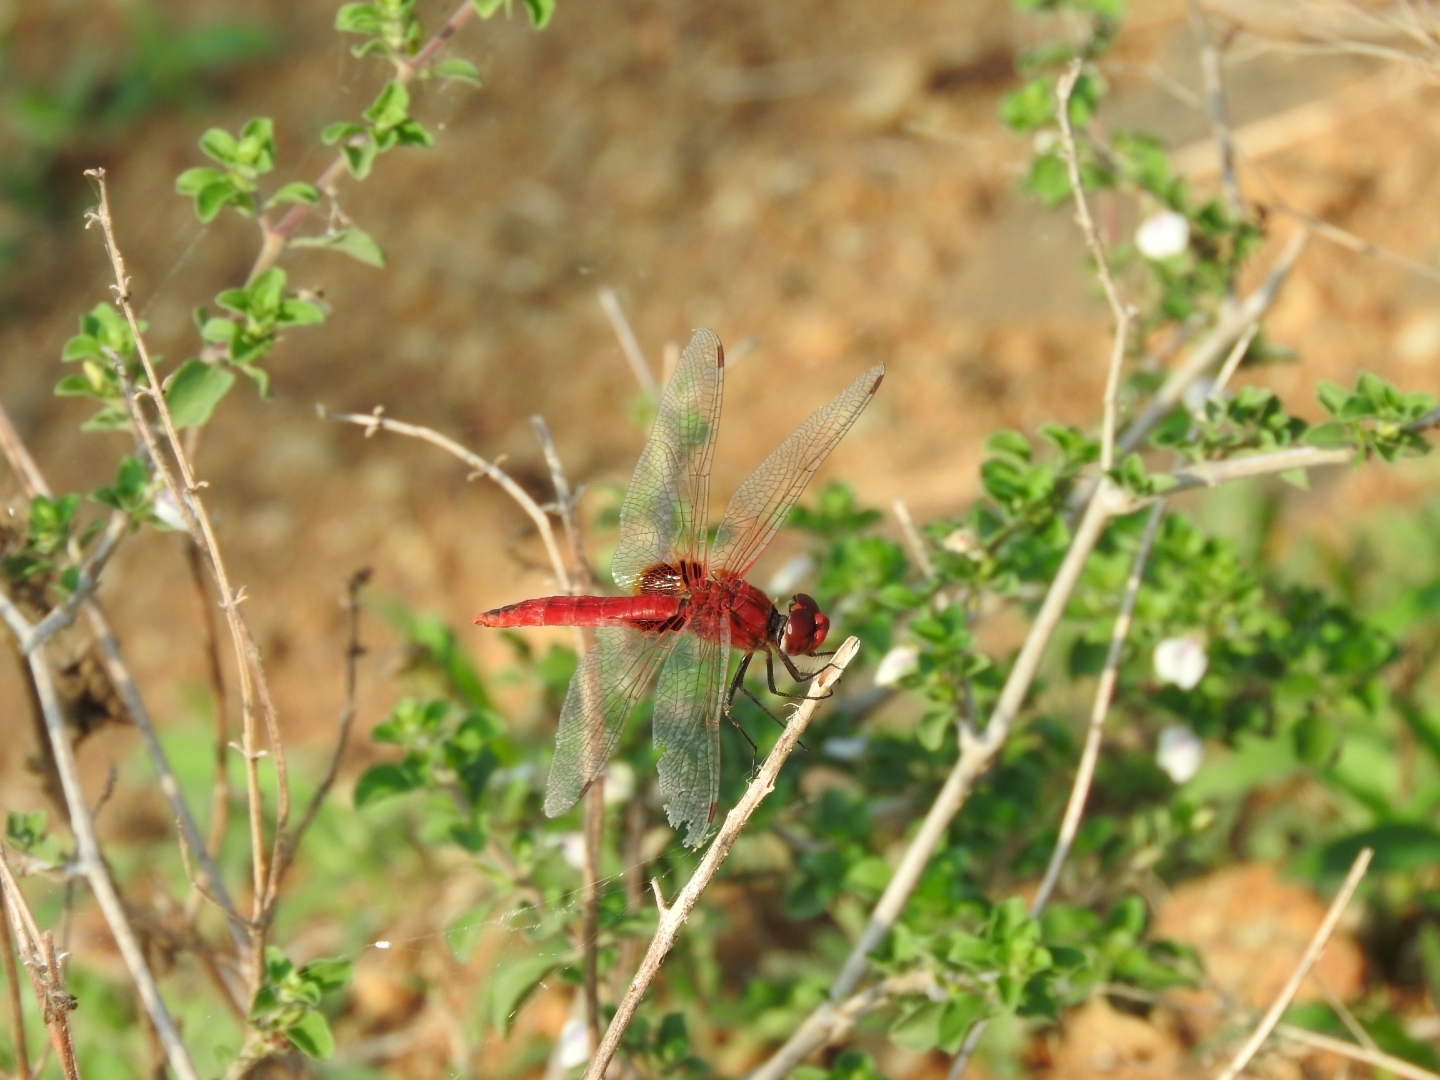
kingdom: Animalia
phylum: Arthropoda
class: Insecta
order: Odonata
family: Libellulidae
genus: Urothemis
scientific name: Urothemis signata
